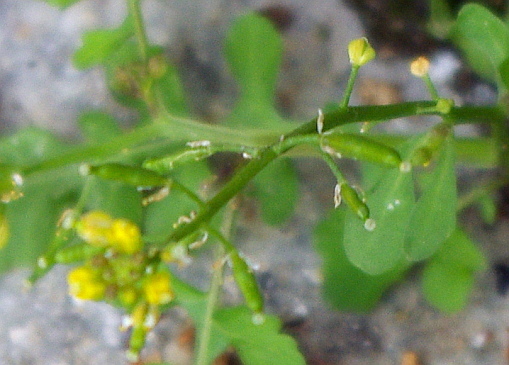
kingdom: Plantae
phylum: Tracheophyta
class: Magnoliopsida
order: Brassicales
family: Brassicaceae
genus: Rorippa
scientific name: Rorippa palustris
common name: Marsh yellow-cress
